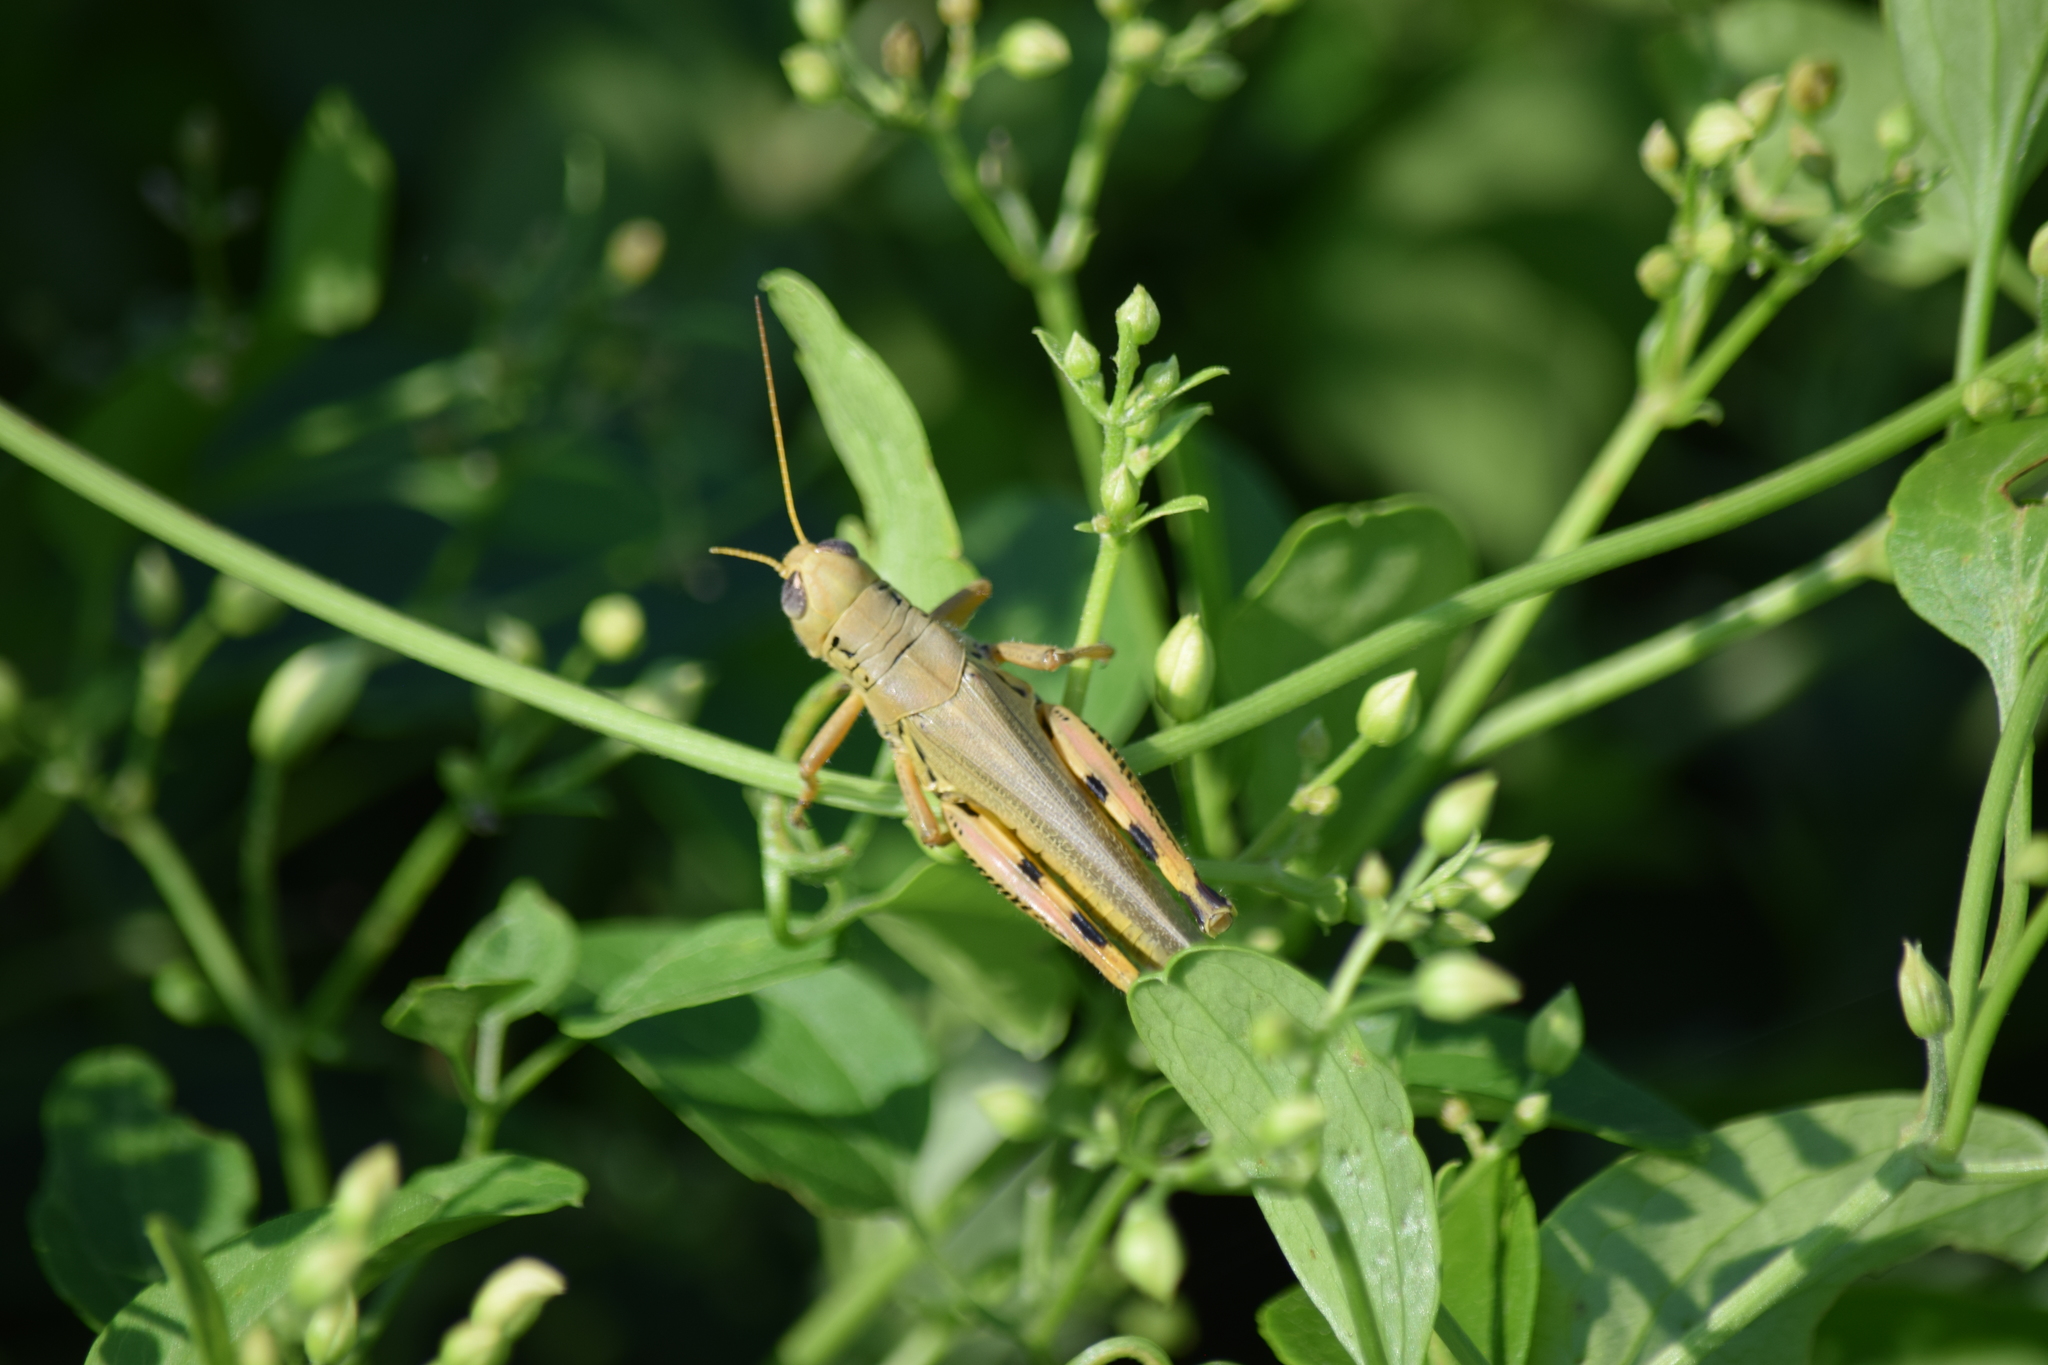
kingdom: Animalia
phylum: Arthropoda
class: Insecta
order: Orthoptera
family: Acrididae
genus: Melanoplus
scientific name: Melanoplus differentialis
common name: Differential grasshopper
